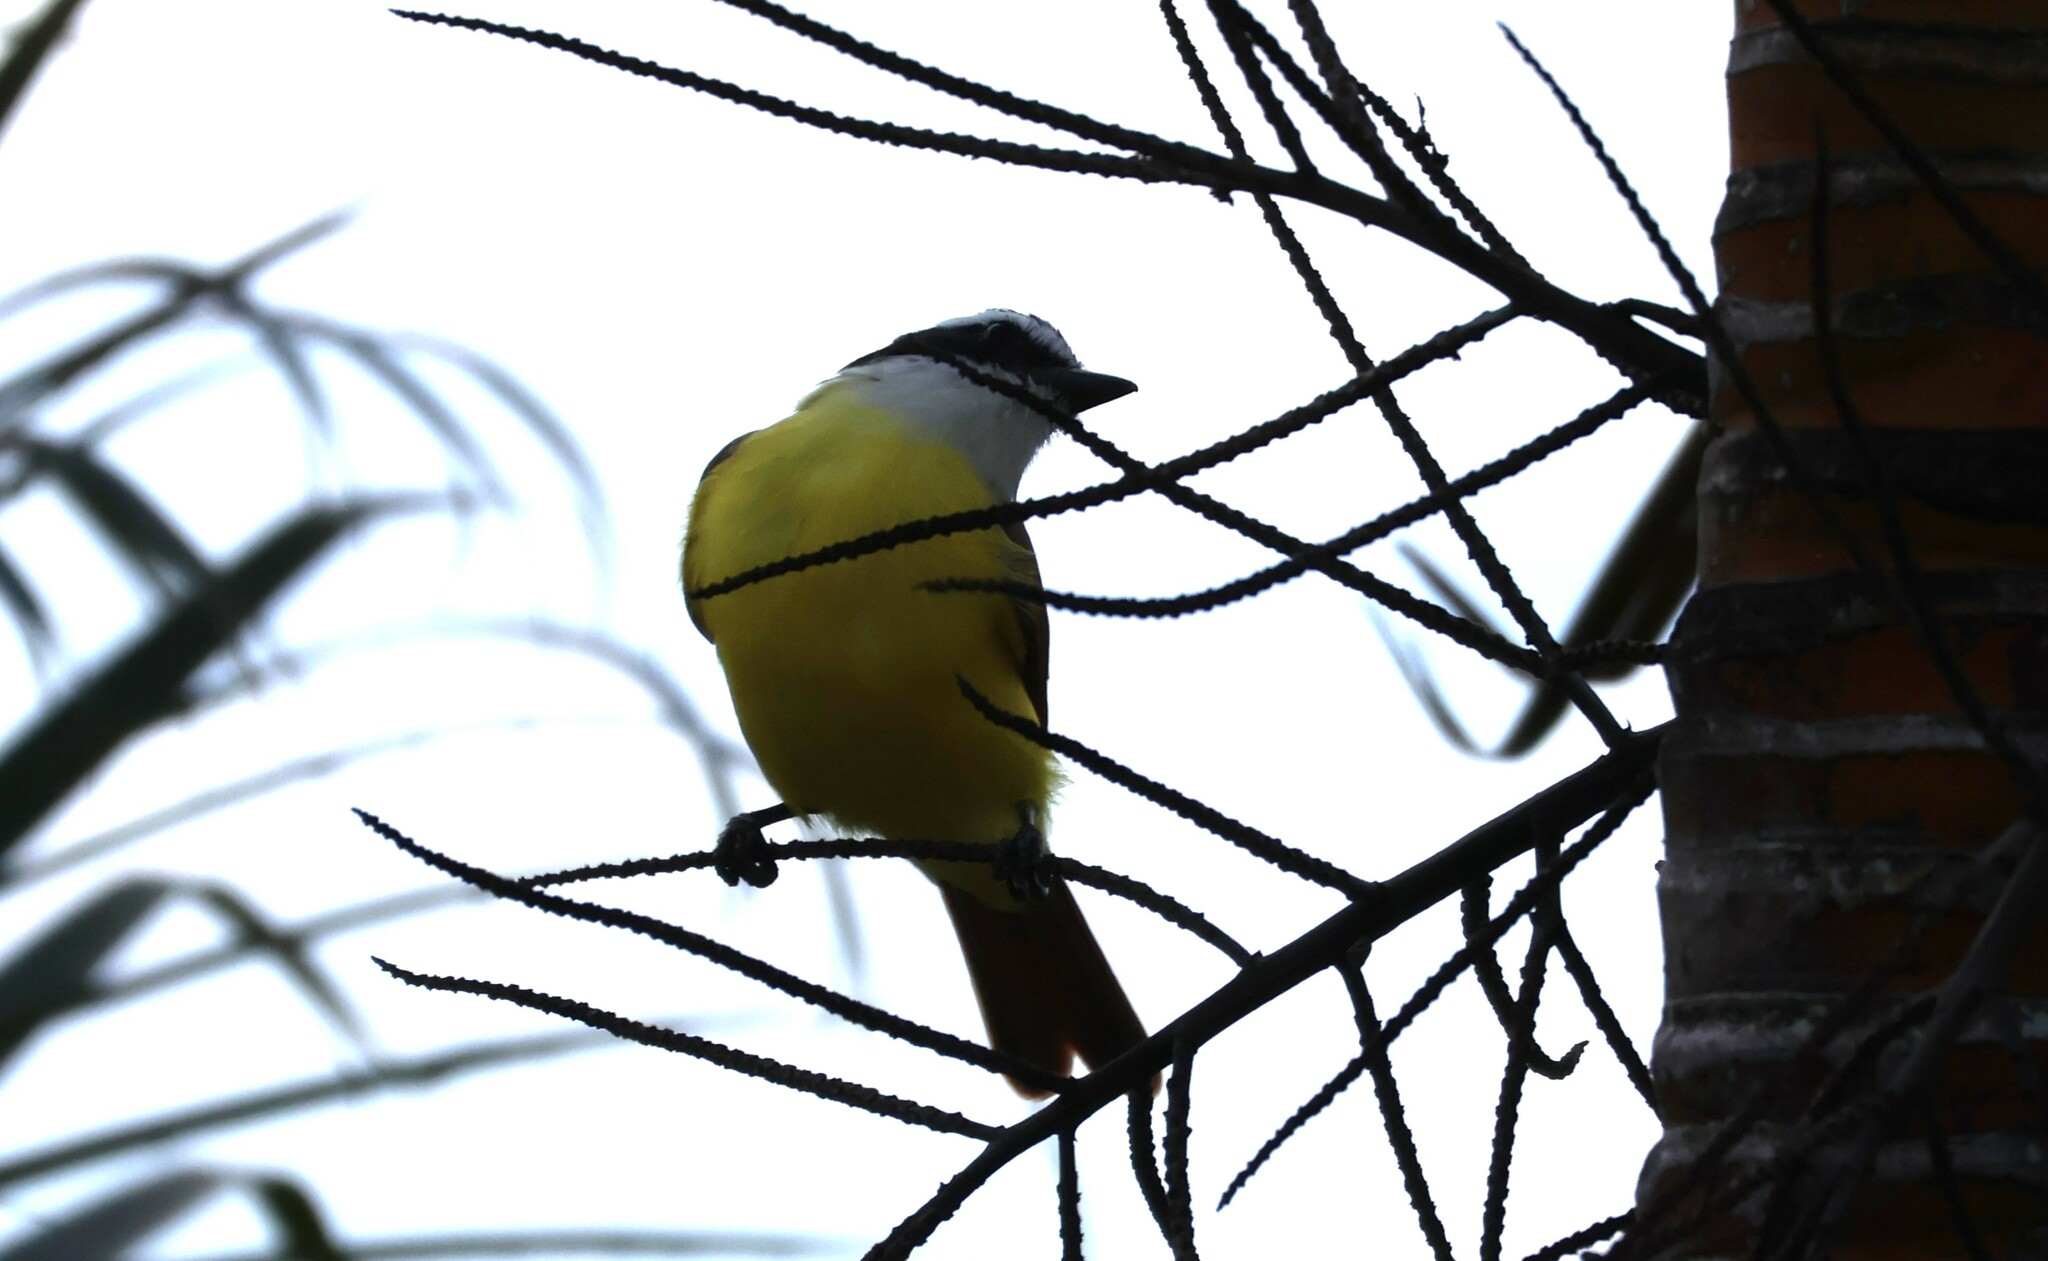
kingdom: Animalia
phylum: Chordata
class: Aves
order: Passeriformes
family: Tyrannidae
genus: Pitangus
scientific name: Pitangus sulphuratus
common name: Great kiskadee
